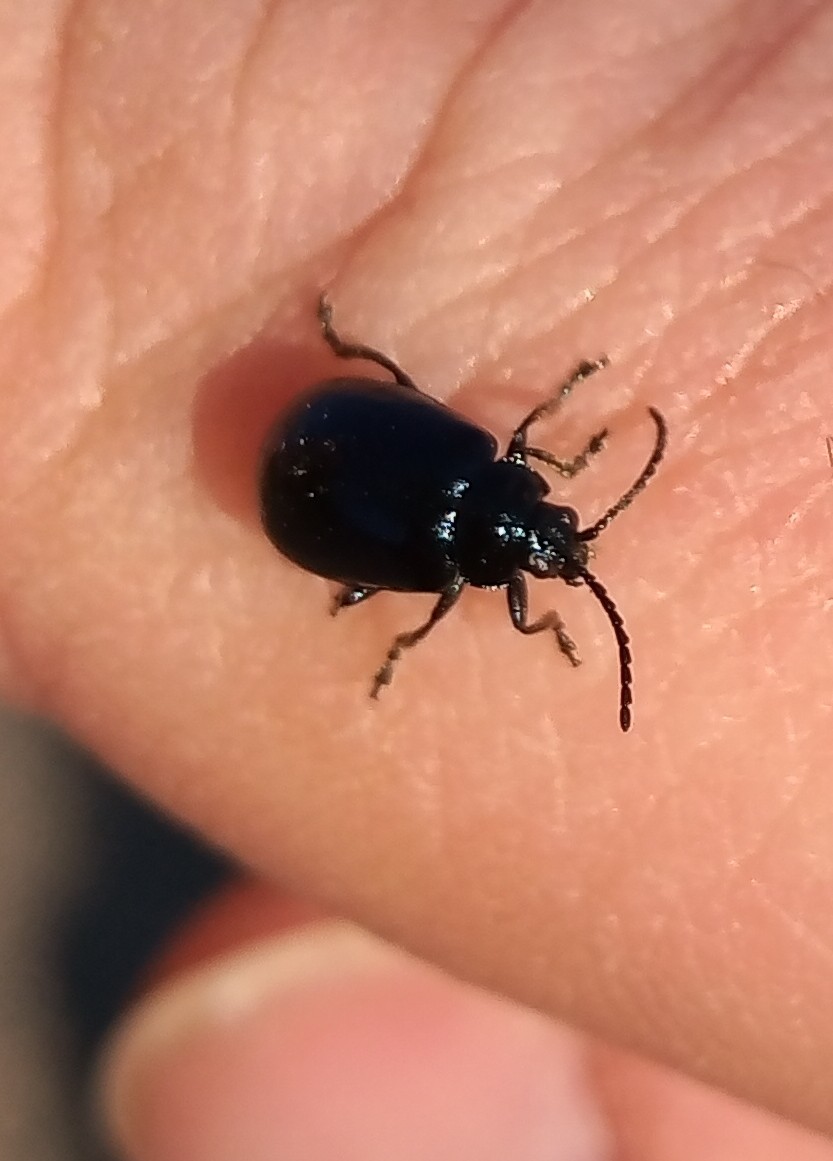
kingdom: Animalia
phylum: Arthropoda
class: Insecta
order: Coleoptera
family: Chrysomelidae
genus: Agelastica
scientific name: Agelastica alni
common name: Alder leaf beetle
